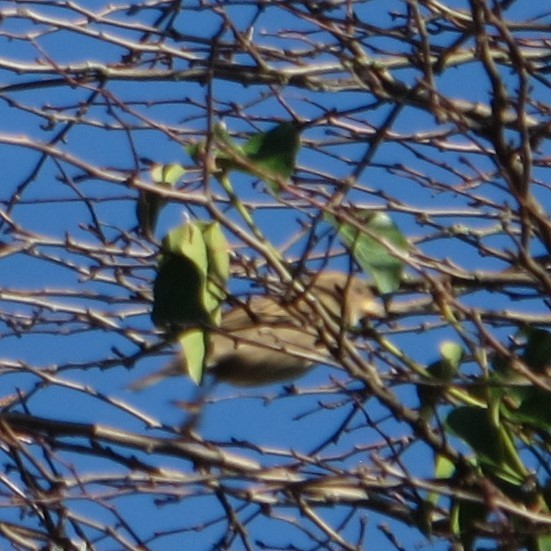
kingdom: Animalia
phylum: Chordata
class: Aves
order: Passeriformes
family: Passeridae
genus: Passer
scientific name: Passer domesticus
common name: House sparrow
